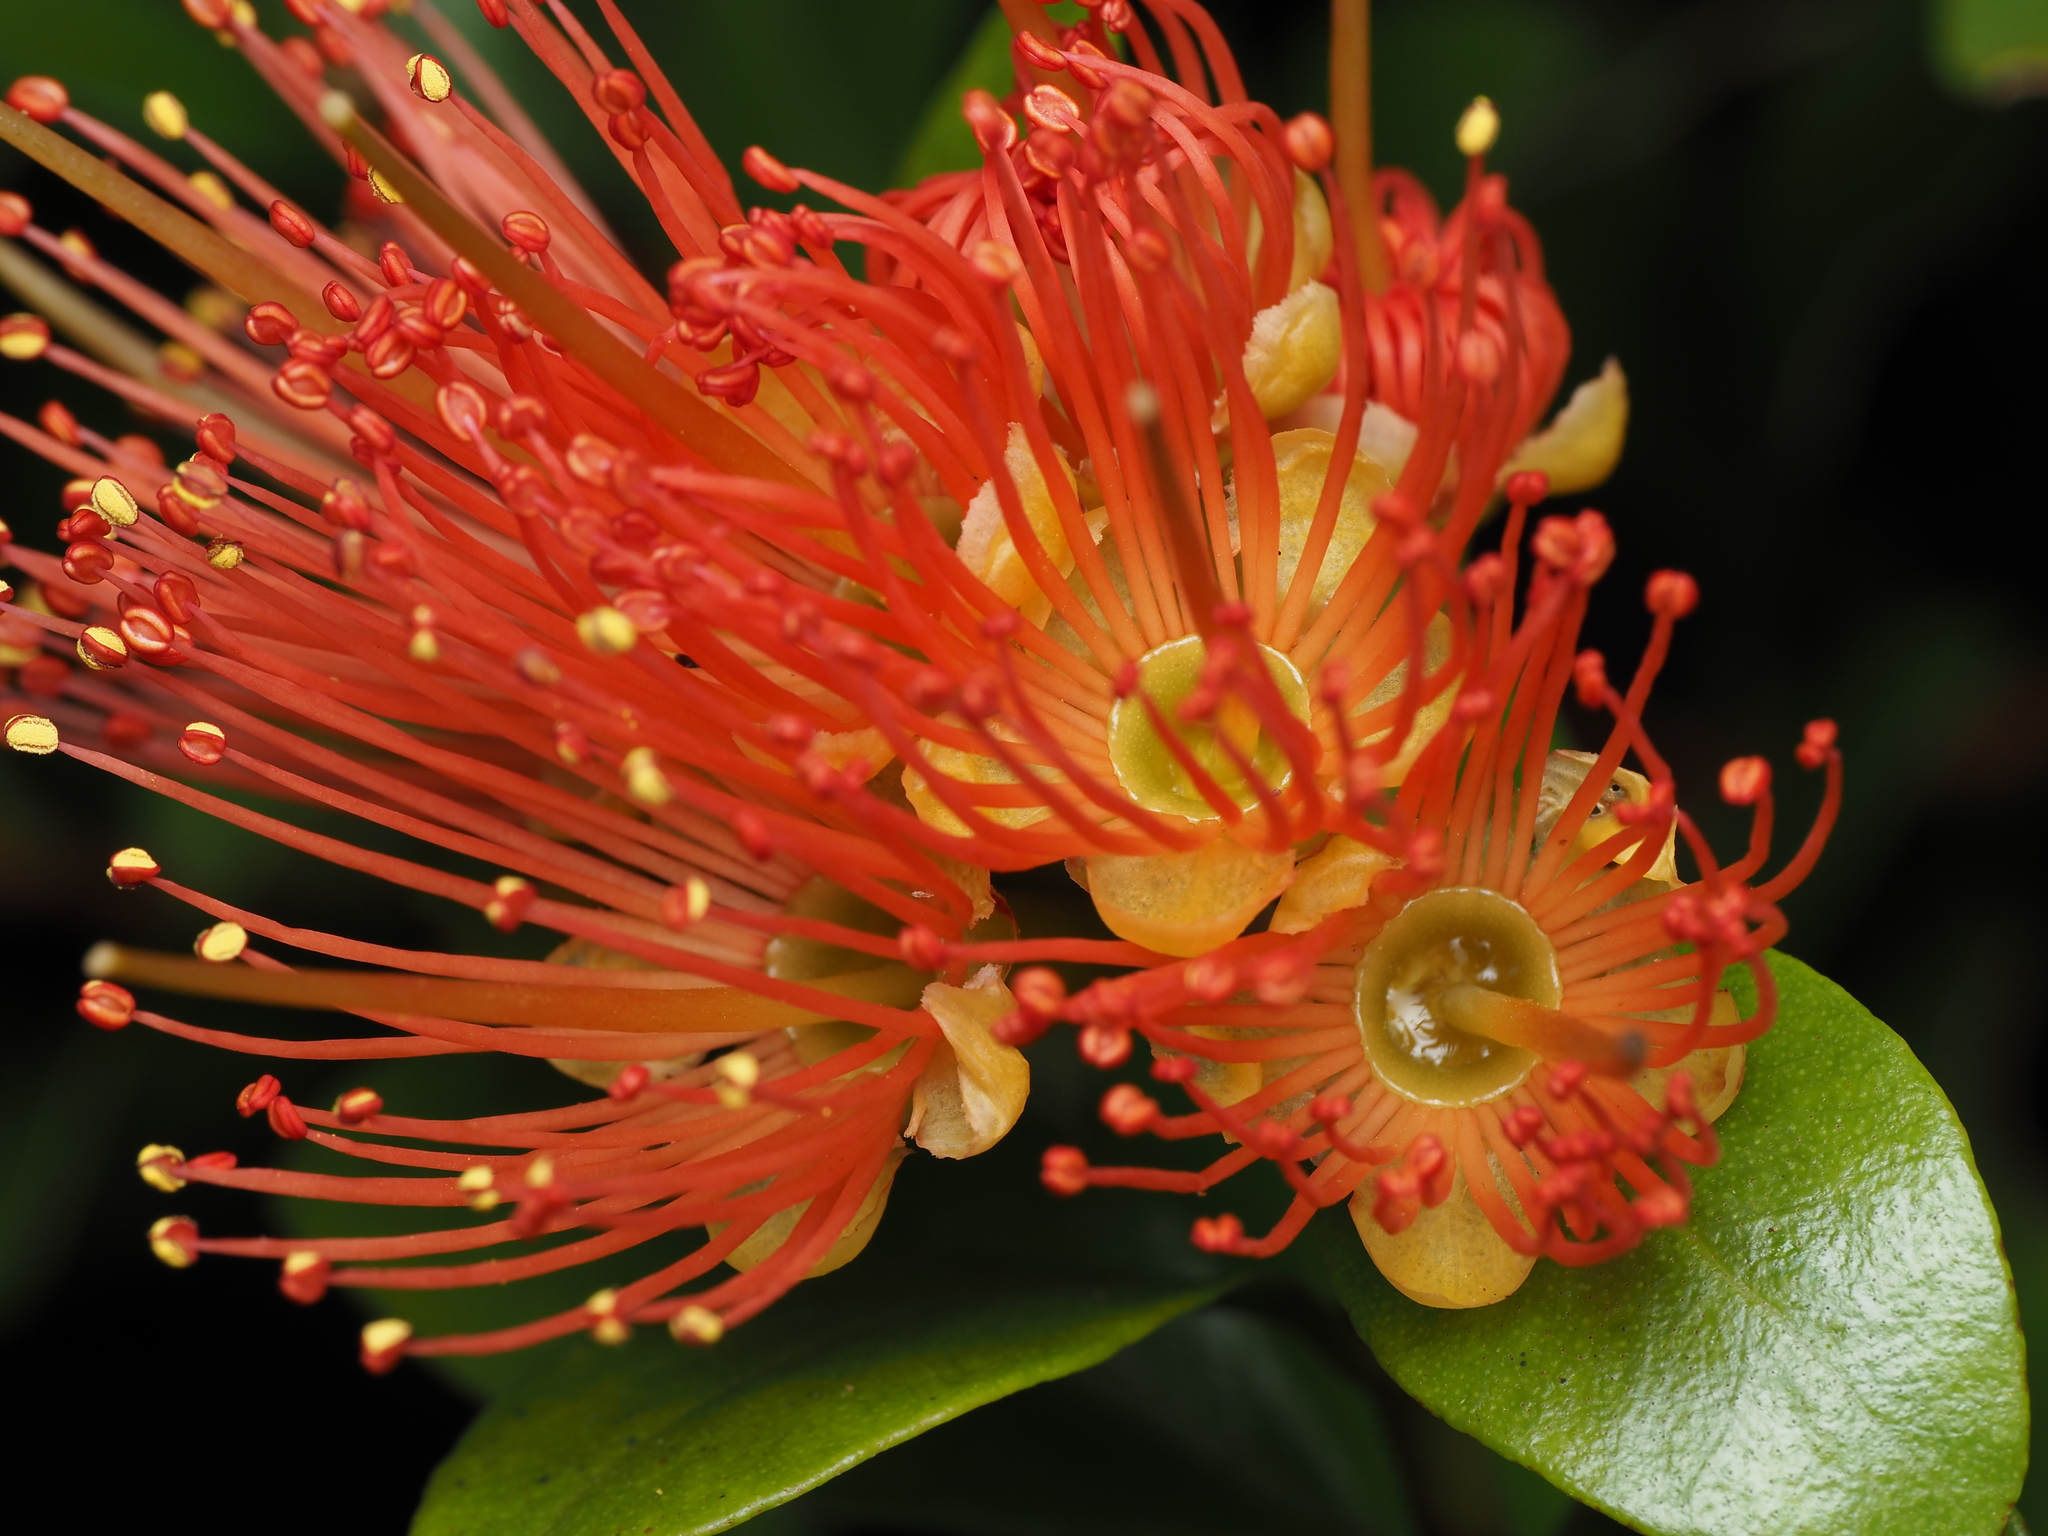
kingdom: Plantae
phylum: Tracheophyta
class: Magnoliopsida
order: Myrtales
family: Myrtaceae
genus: Metrosideros
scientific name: Metrosideros fulgens
